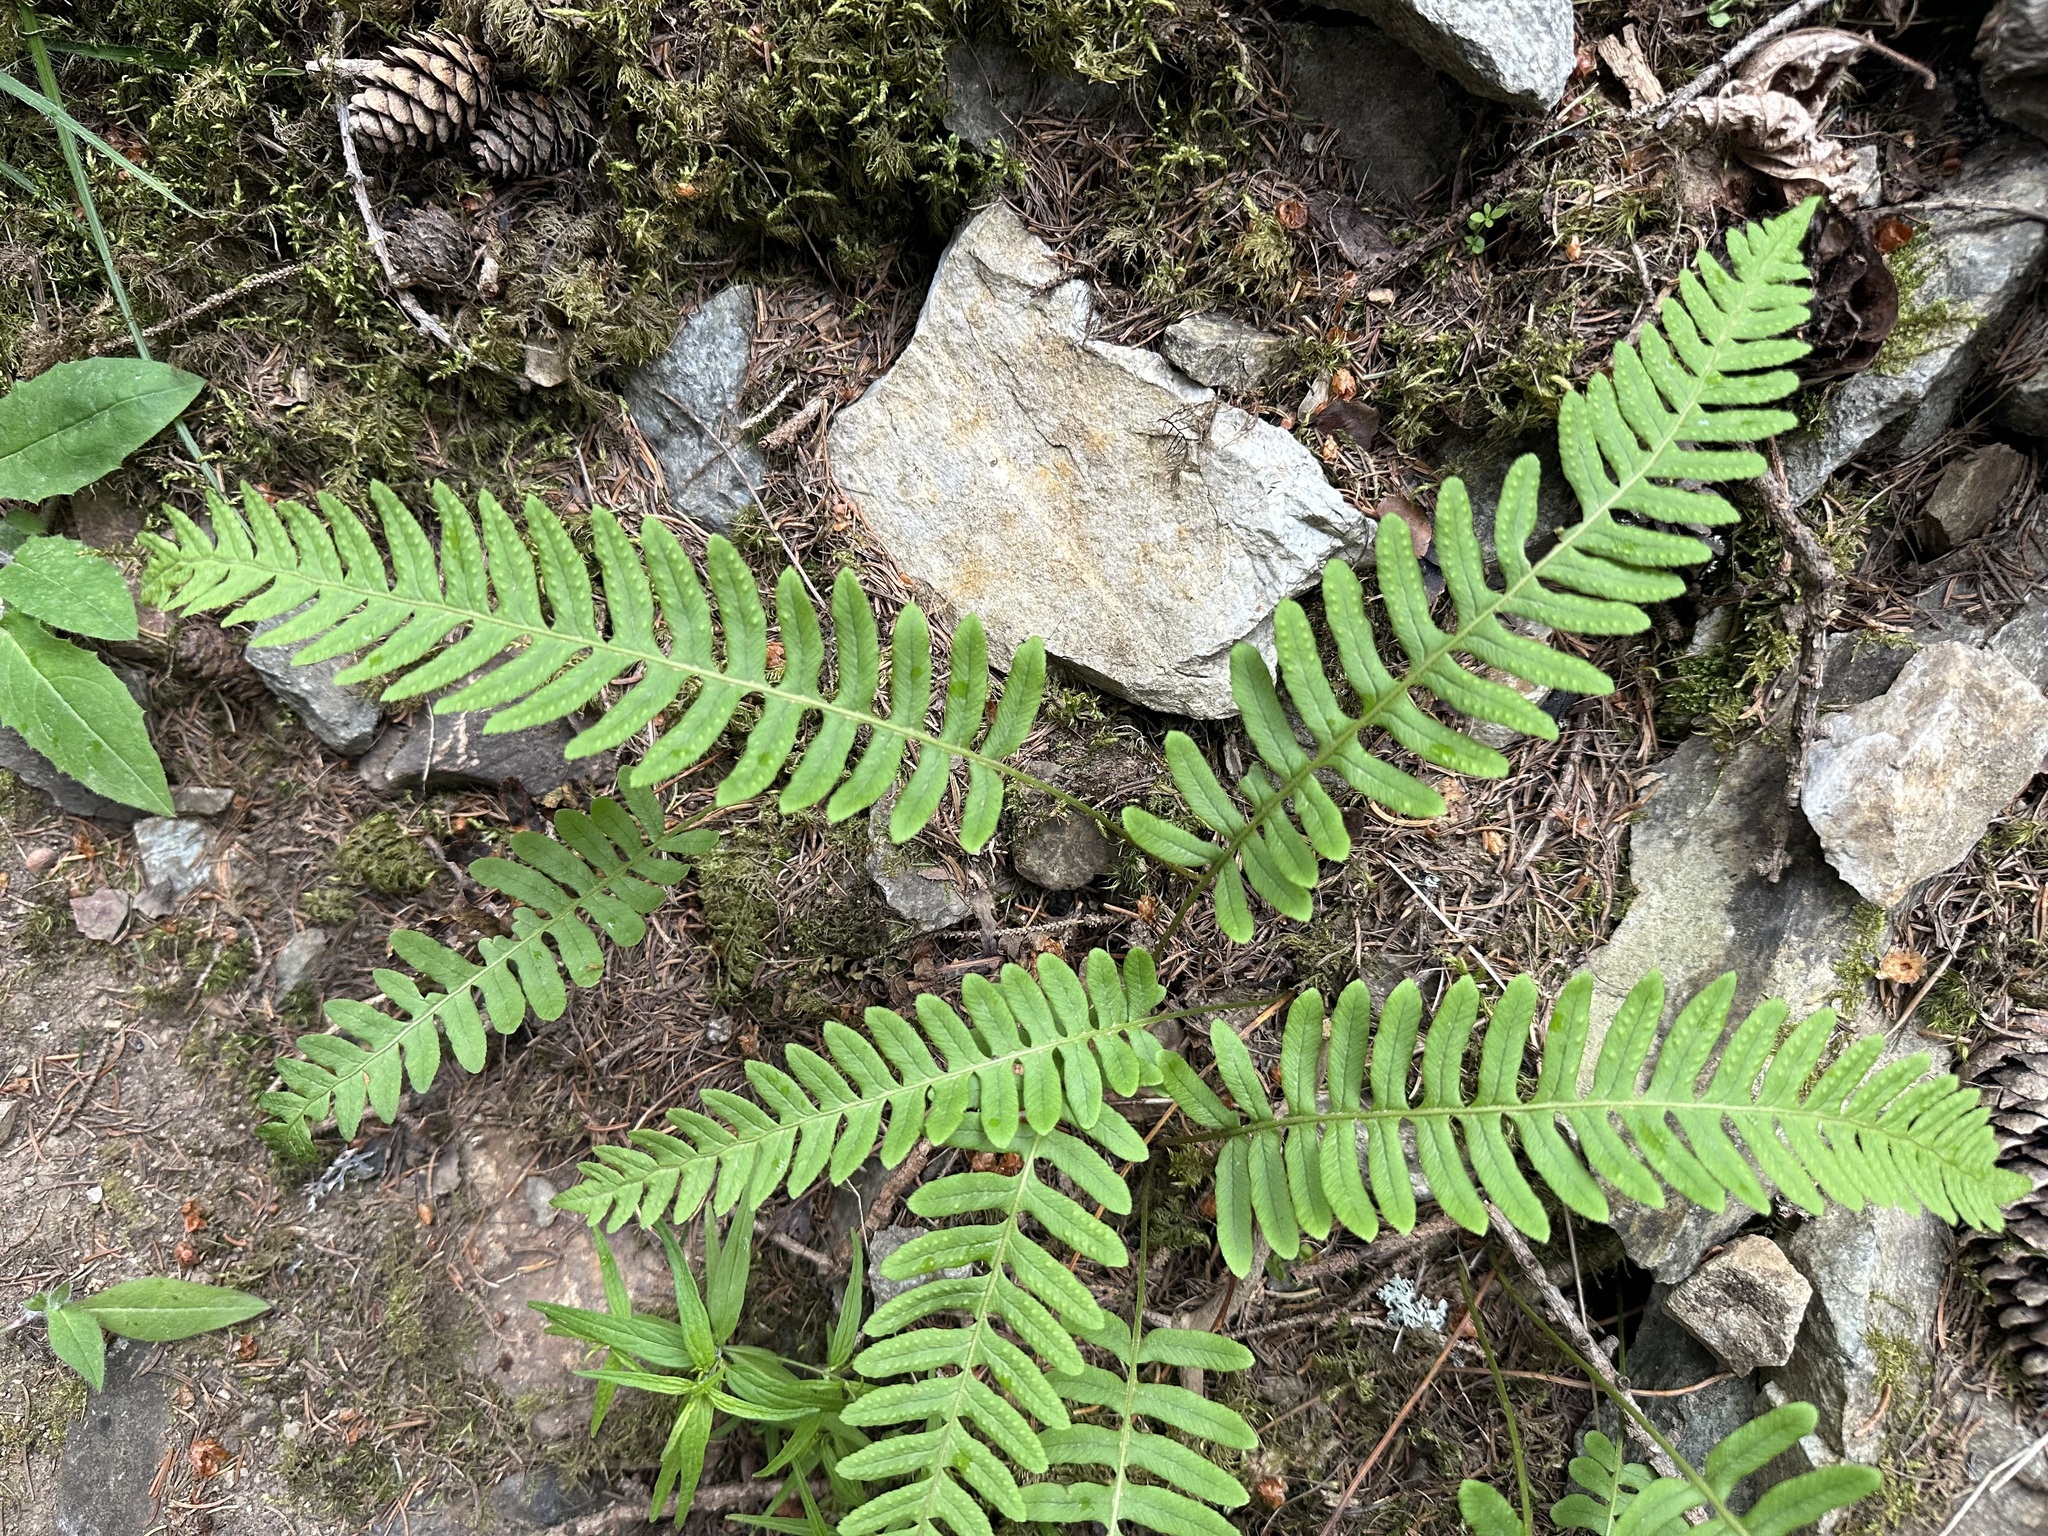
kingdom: Plantae
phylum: Tracheophyta
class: Polypodiopsida
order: Polypodiales
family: Polypodiaceae
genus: Polypodium
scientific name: Polypodium vulgare
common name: Common polypody
